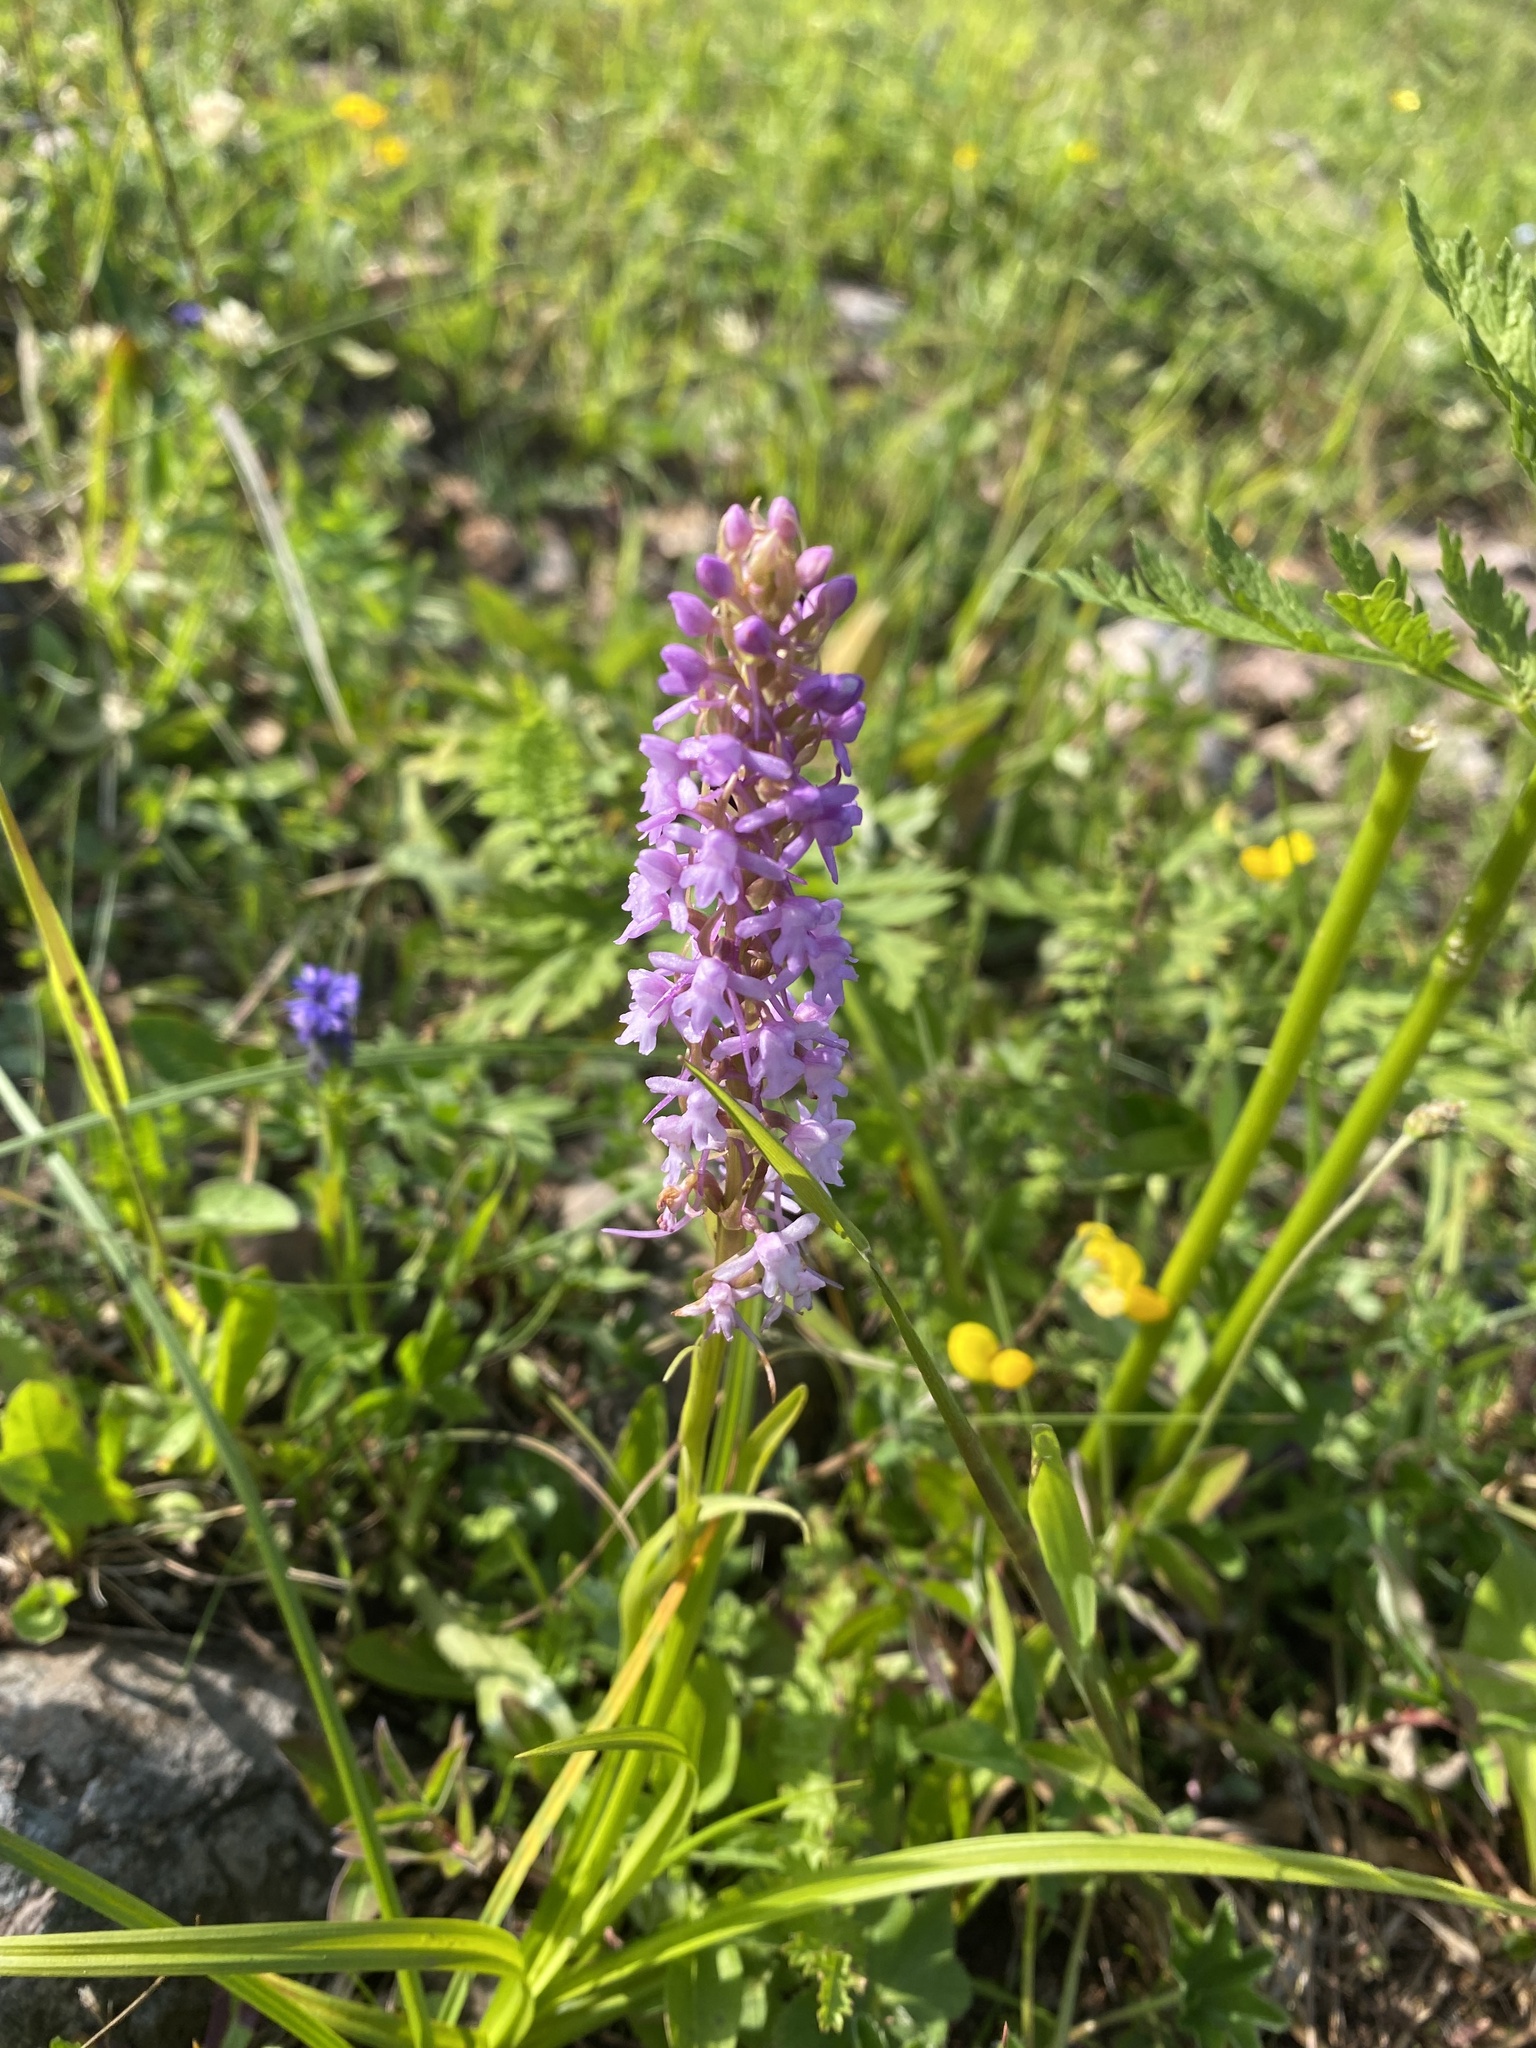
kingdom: Plantae
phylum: Tracheophyta
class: Liliopsida
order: Asparagales
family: Orchidaceae
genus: Gymnadenia
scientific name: Gymnadenia conopsea
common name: Fragrant orchid
